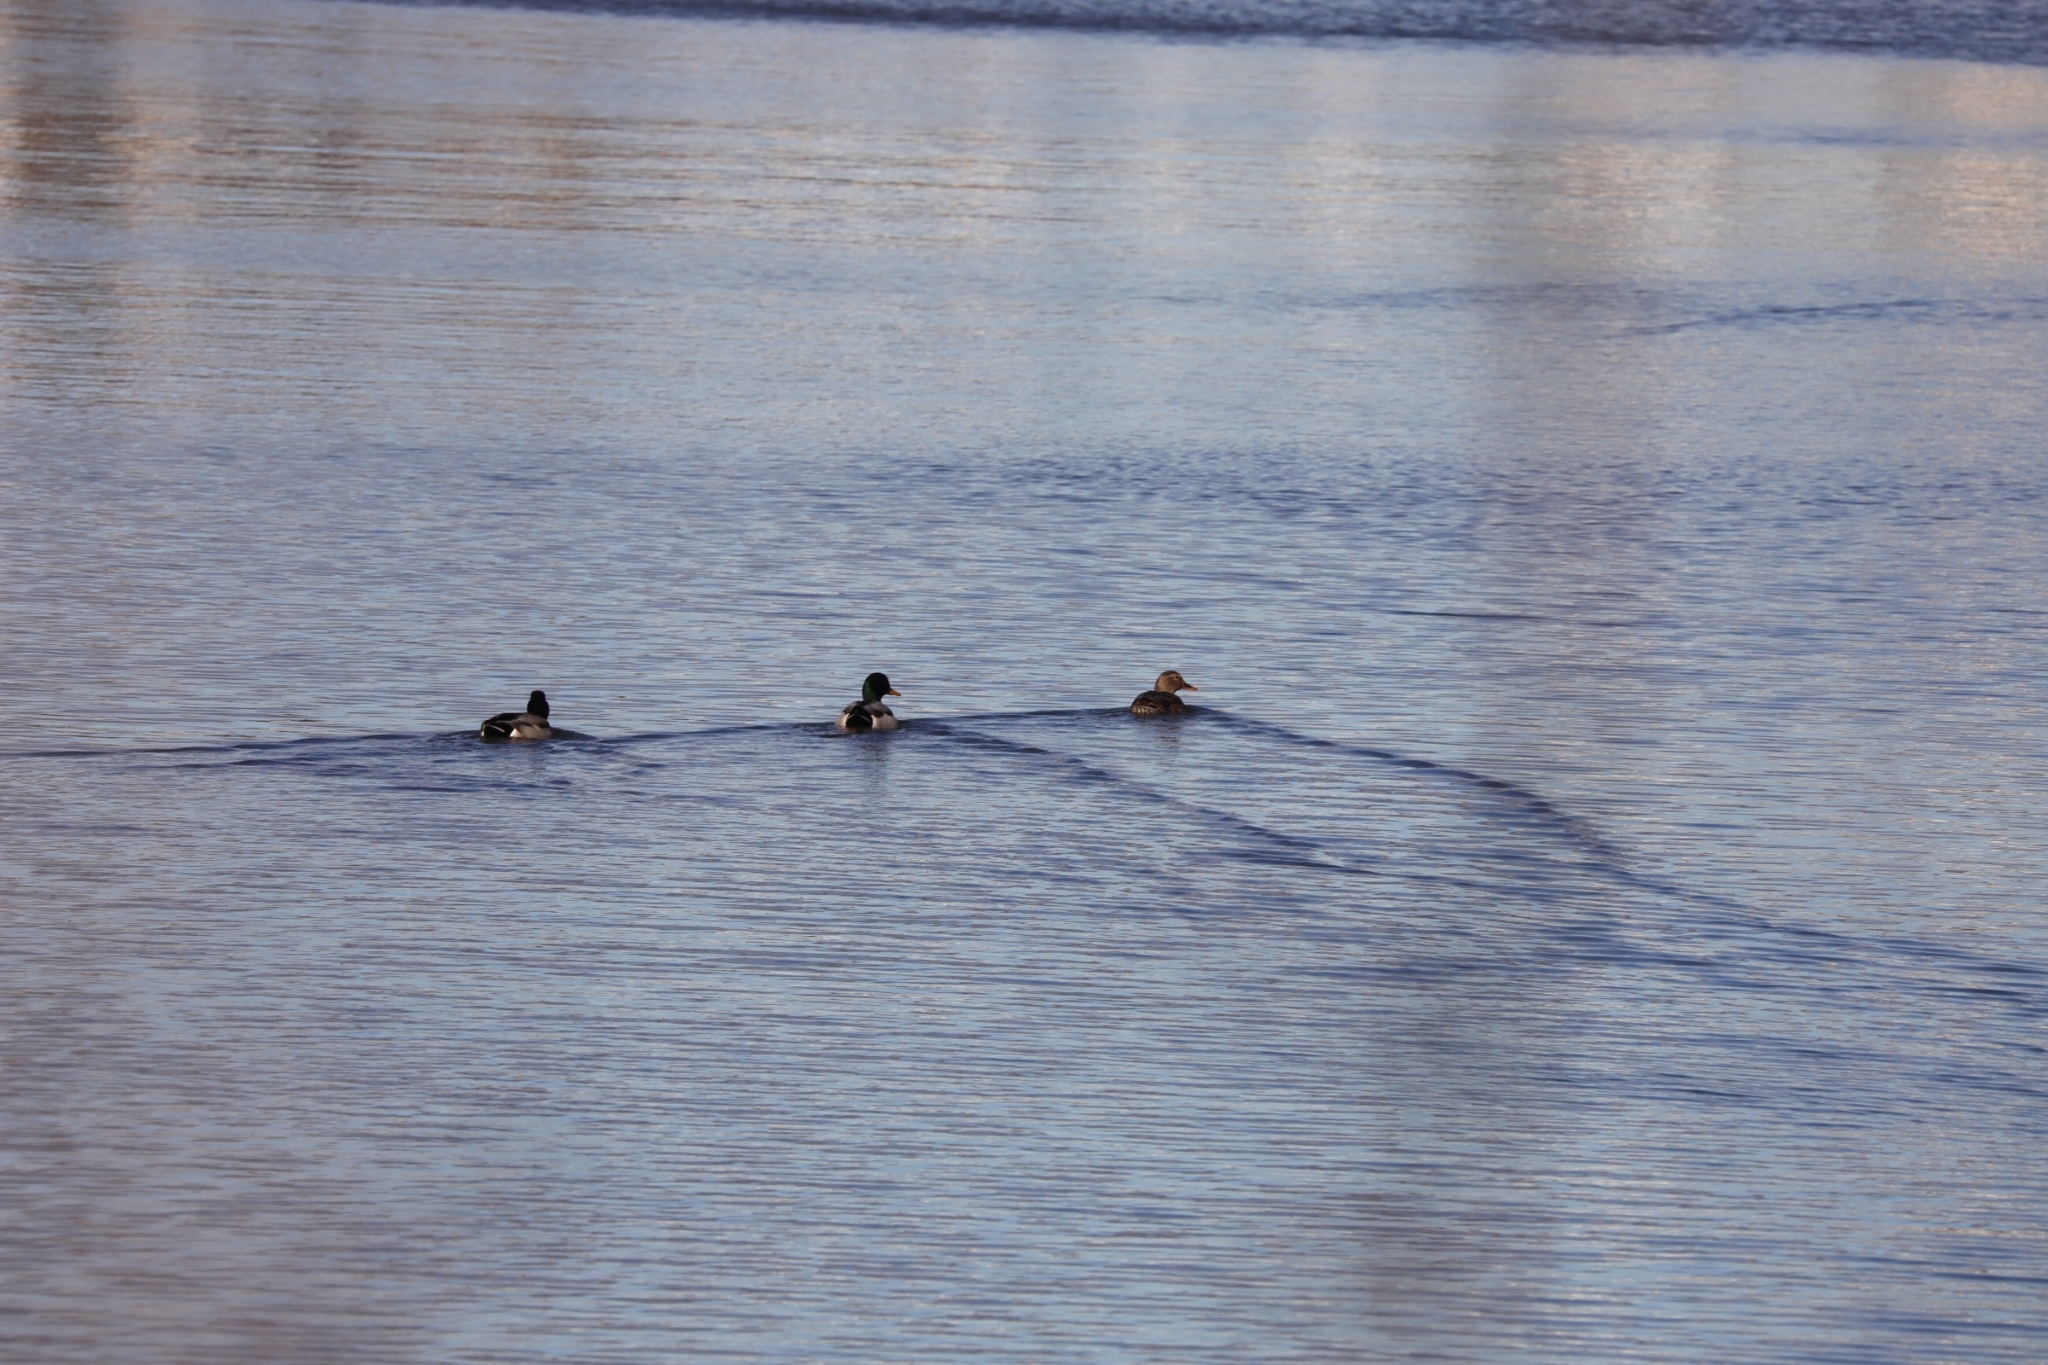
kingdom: Animalia
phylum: Chordata
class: Aves
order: Anseriformes
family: Anatidae
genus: Anas
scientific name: Anas platyrhynchos
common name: Mallard
